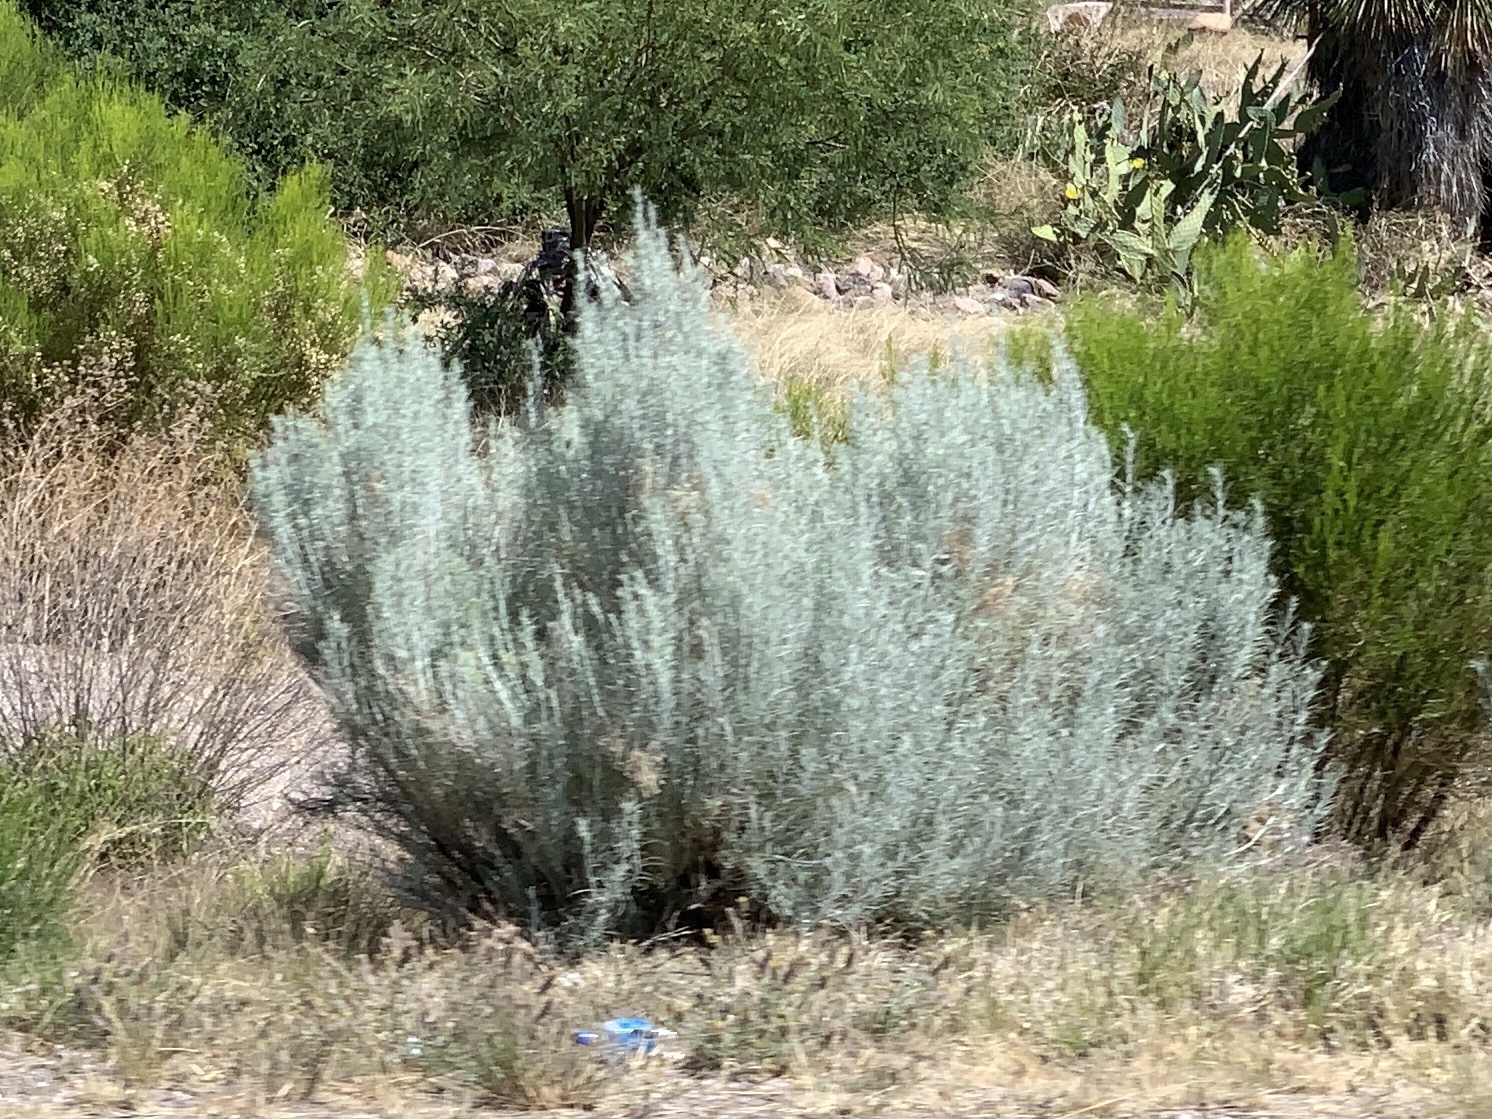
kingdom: Plantae
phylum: Tracheophyta
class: Magnoliopsida
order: Asterales
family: Asteraceae
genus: Ericameria
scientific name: Ericameria nauseosa
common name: Rubber rabbitbrush
